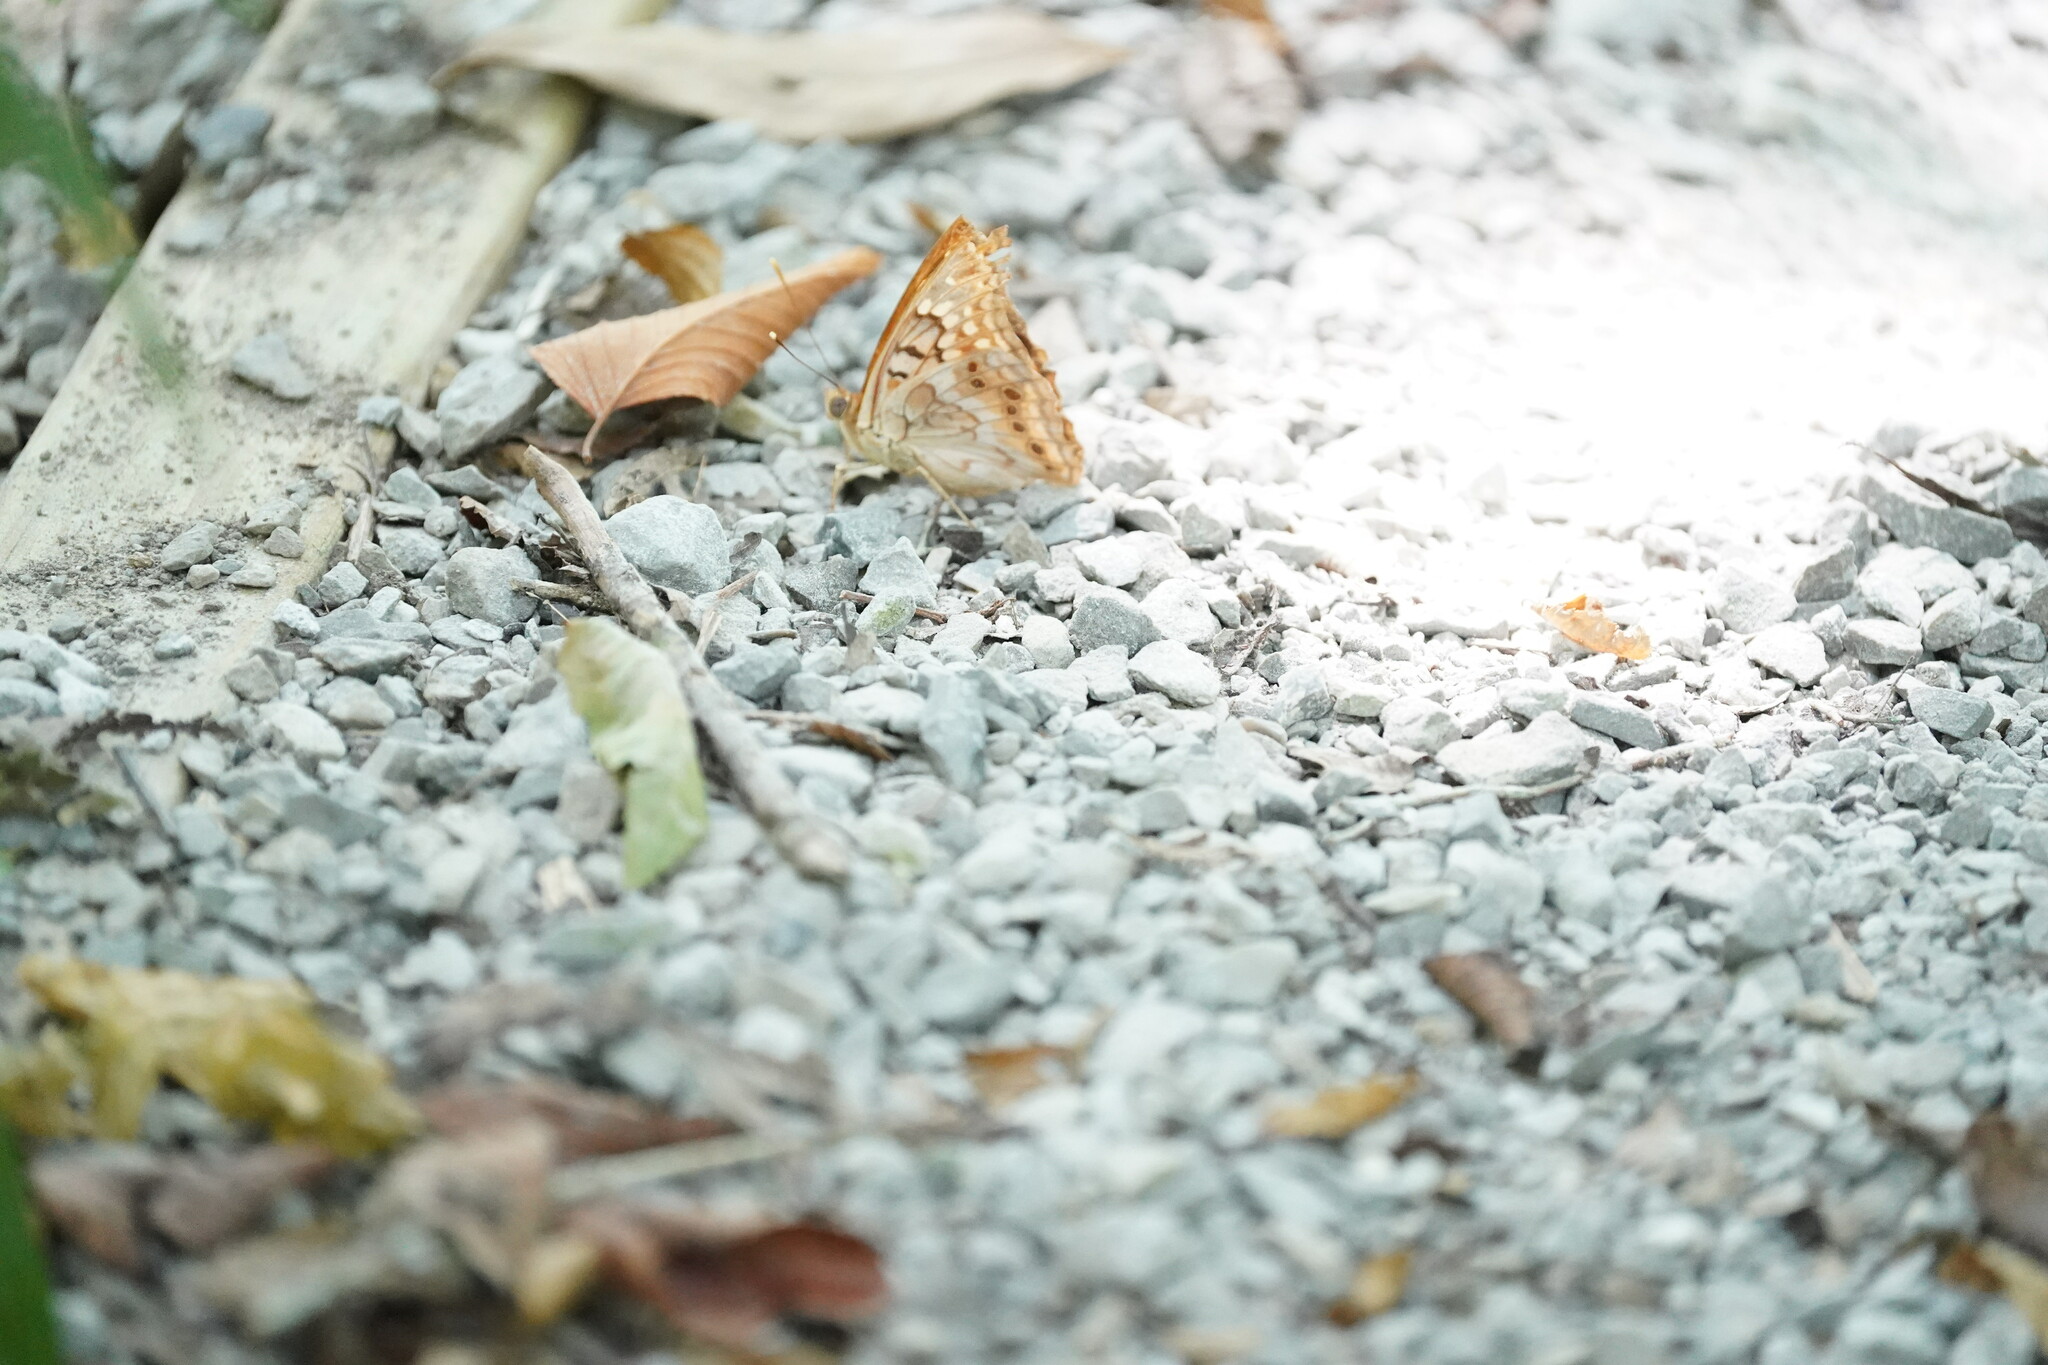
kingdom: Animalia
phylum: Arthropoda
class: Insecta
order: Lepidoptera
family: Nymphalidae
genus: Asterocampa
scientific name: Asterocampa clyton
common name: Tawny emperor
